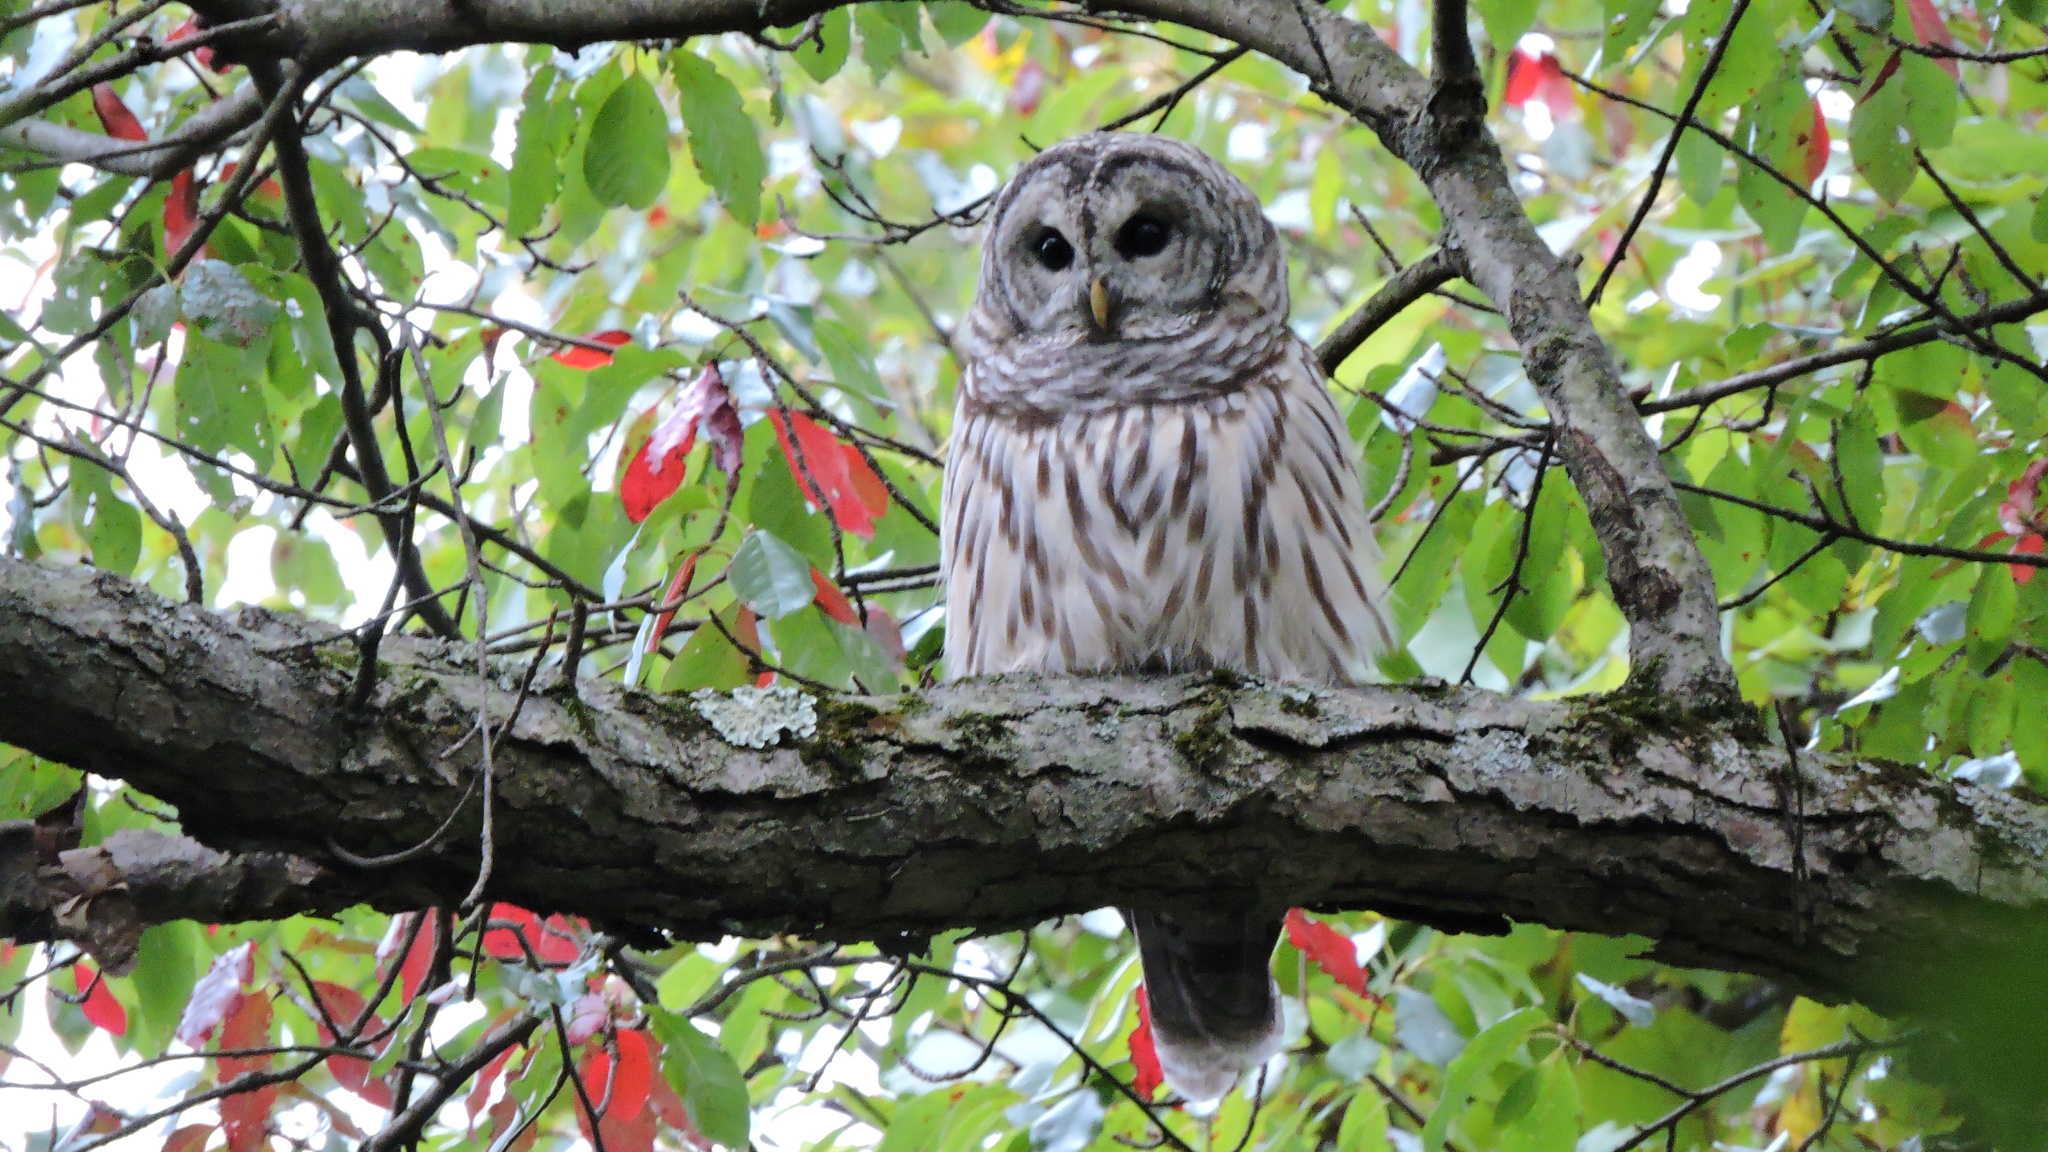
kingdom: Animalia
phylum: Chordata
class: Aves
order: Strigiformes
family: Strigidae
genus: Strix
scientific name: Strix varia
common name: Barred owl
